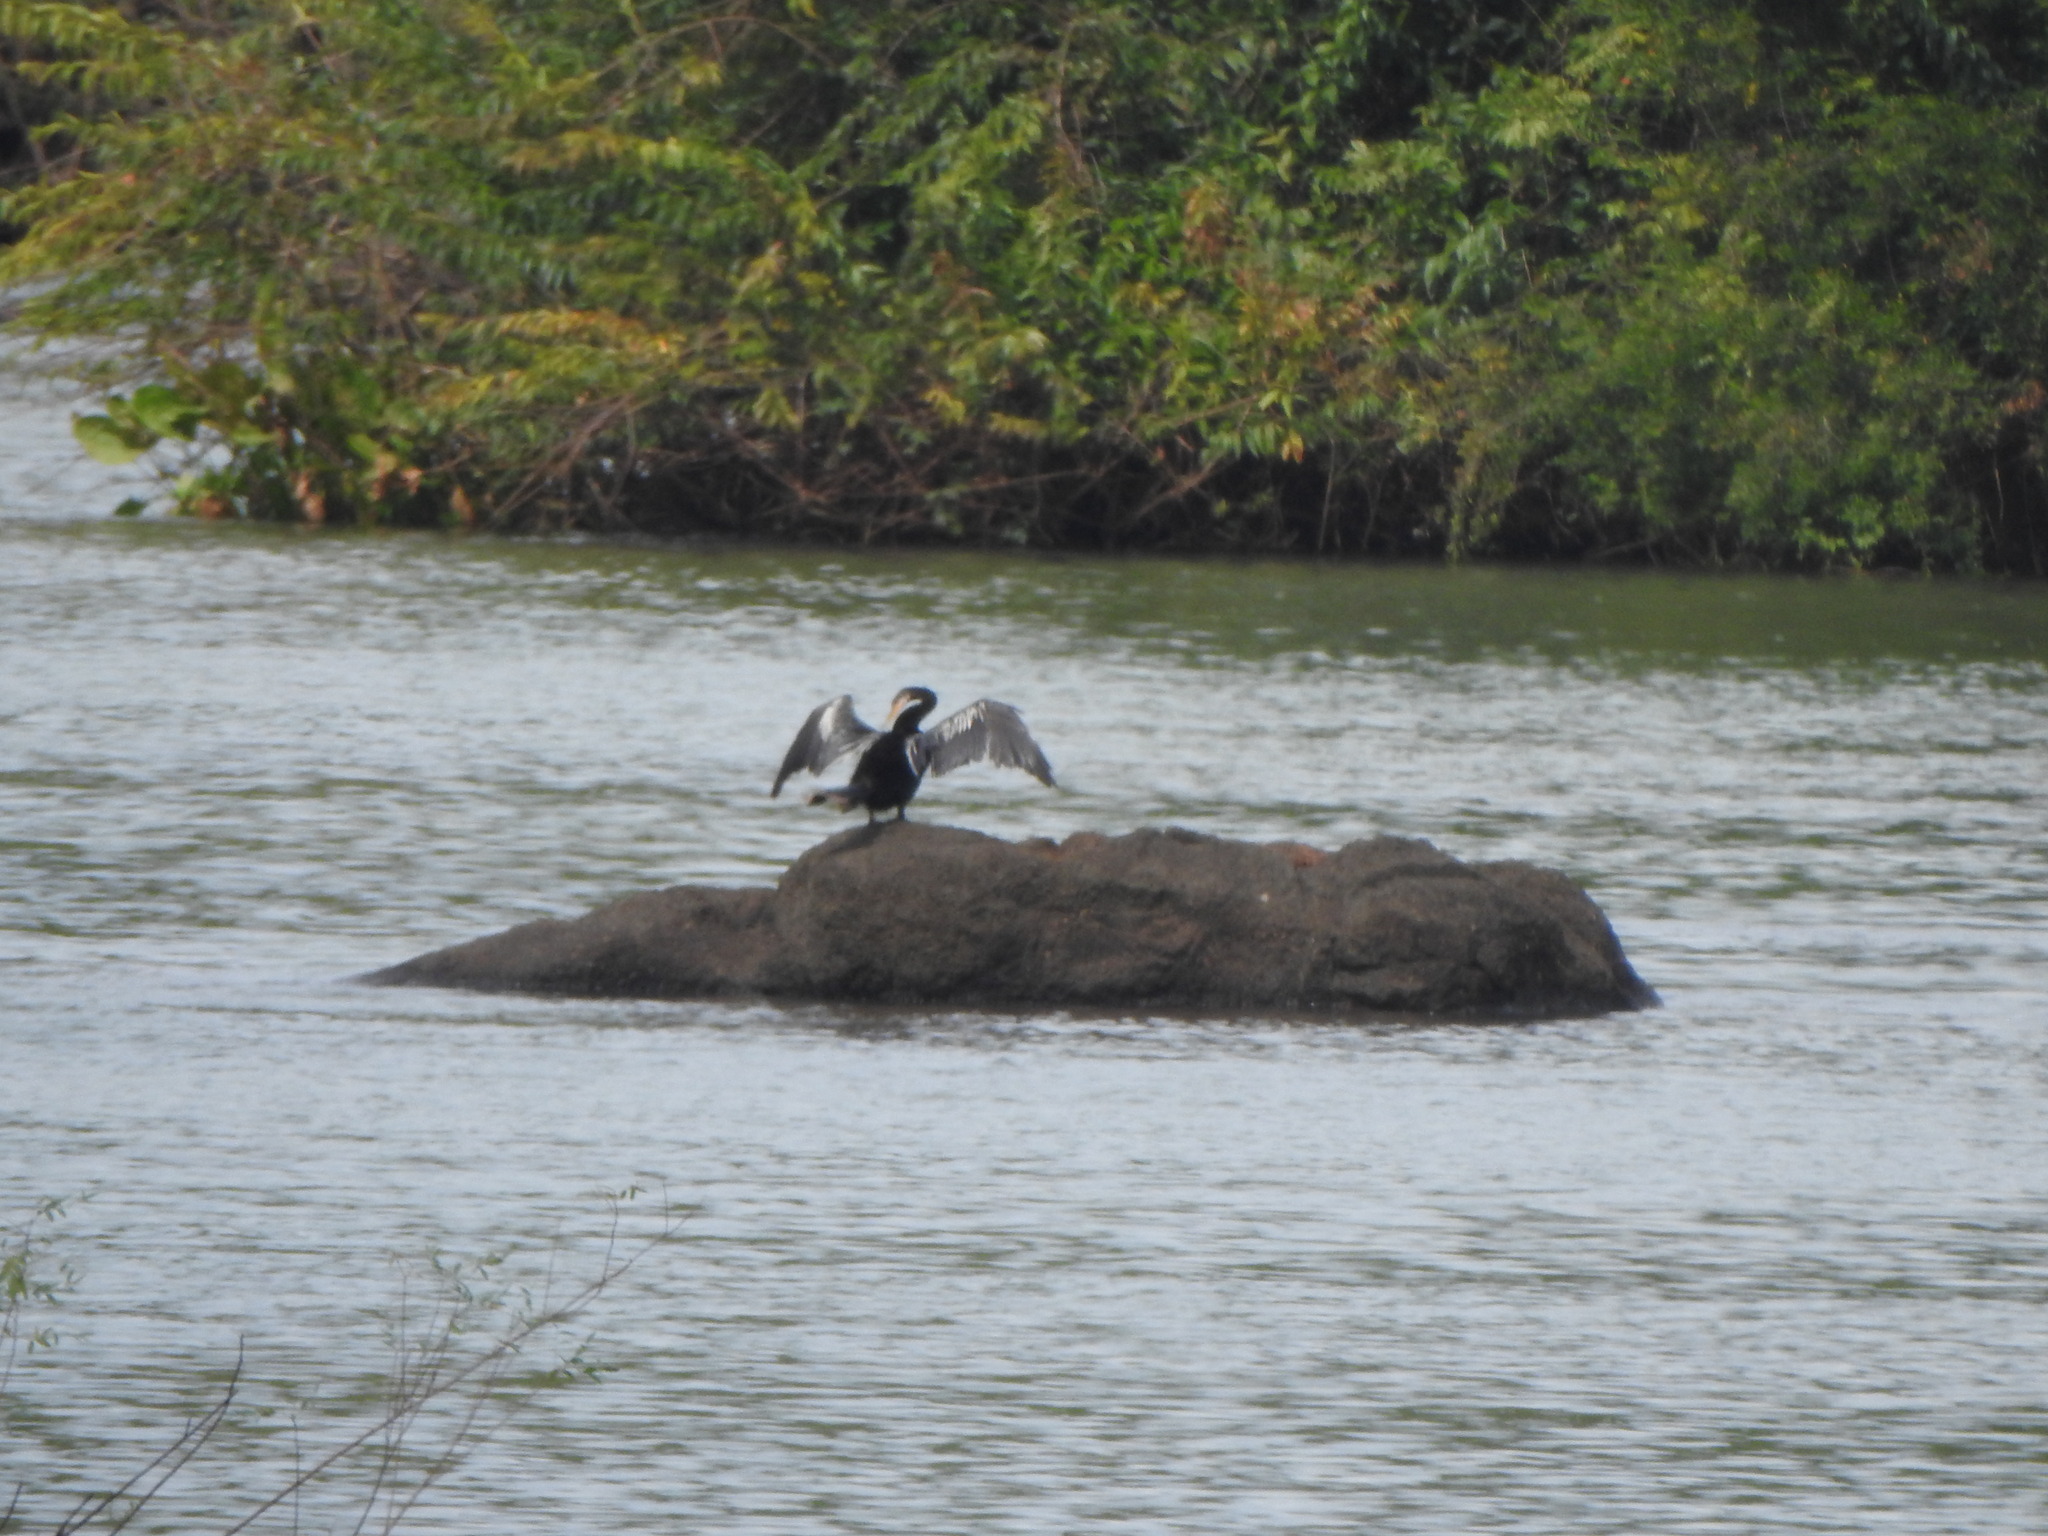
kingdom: Animalia
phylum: Chordata
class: Aves
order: Suliformes
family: Anhingidae
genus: Anhinga
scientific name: Anhinga anhinga
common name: Anhinga
